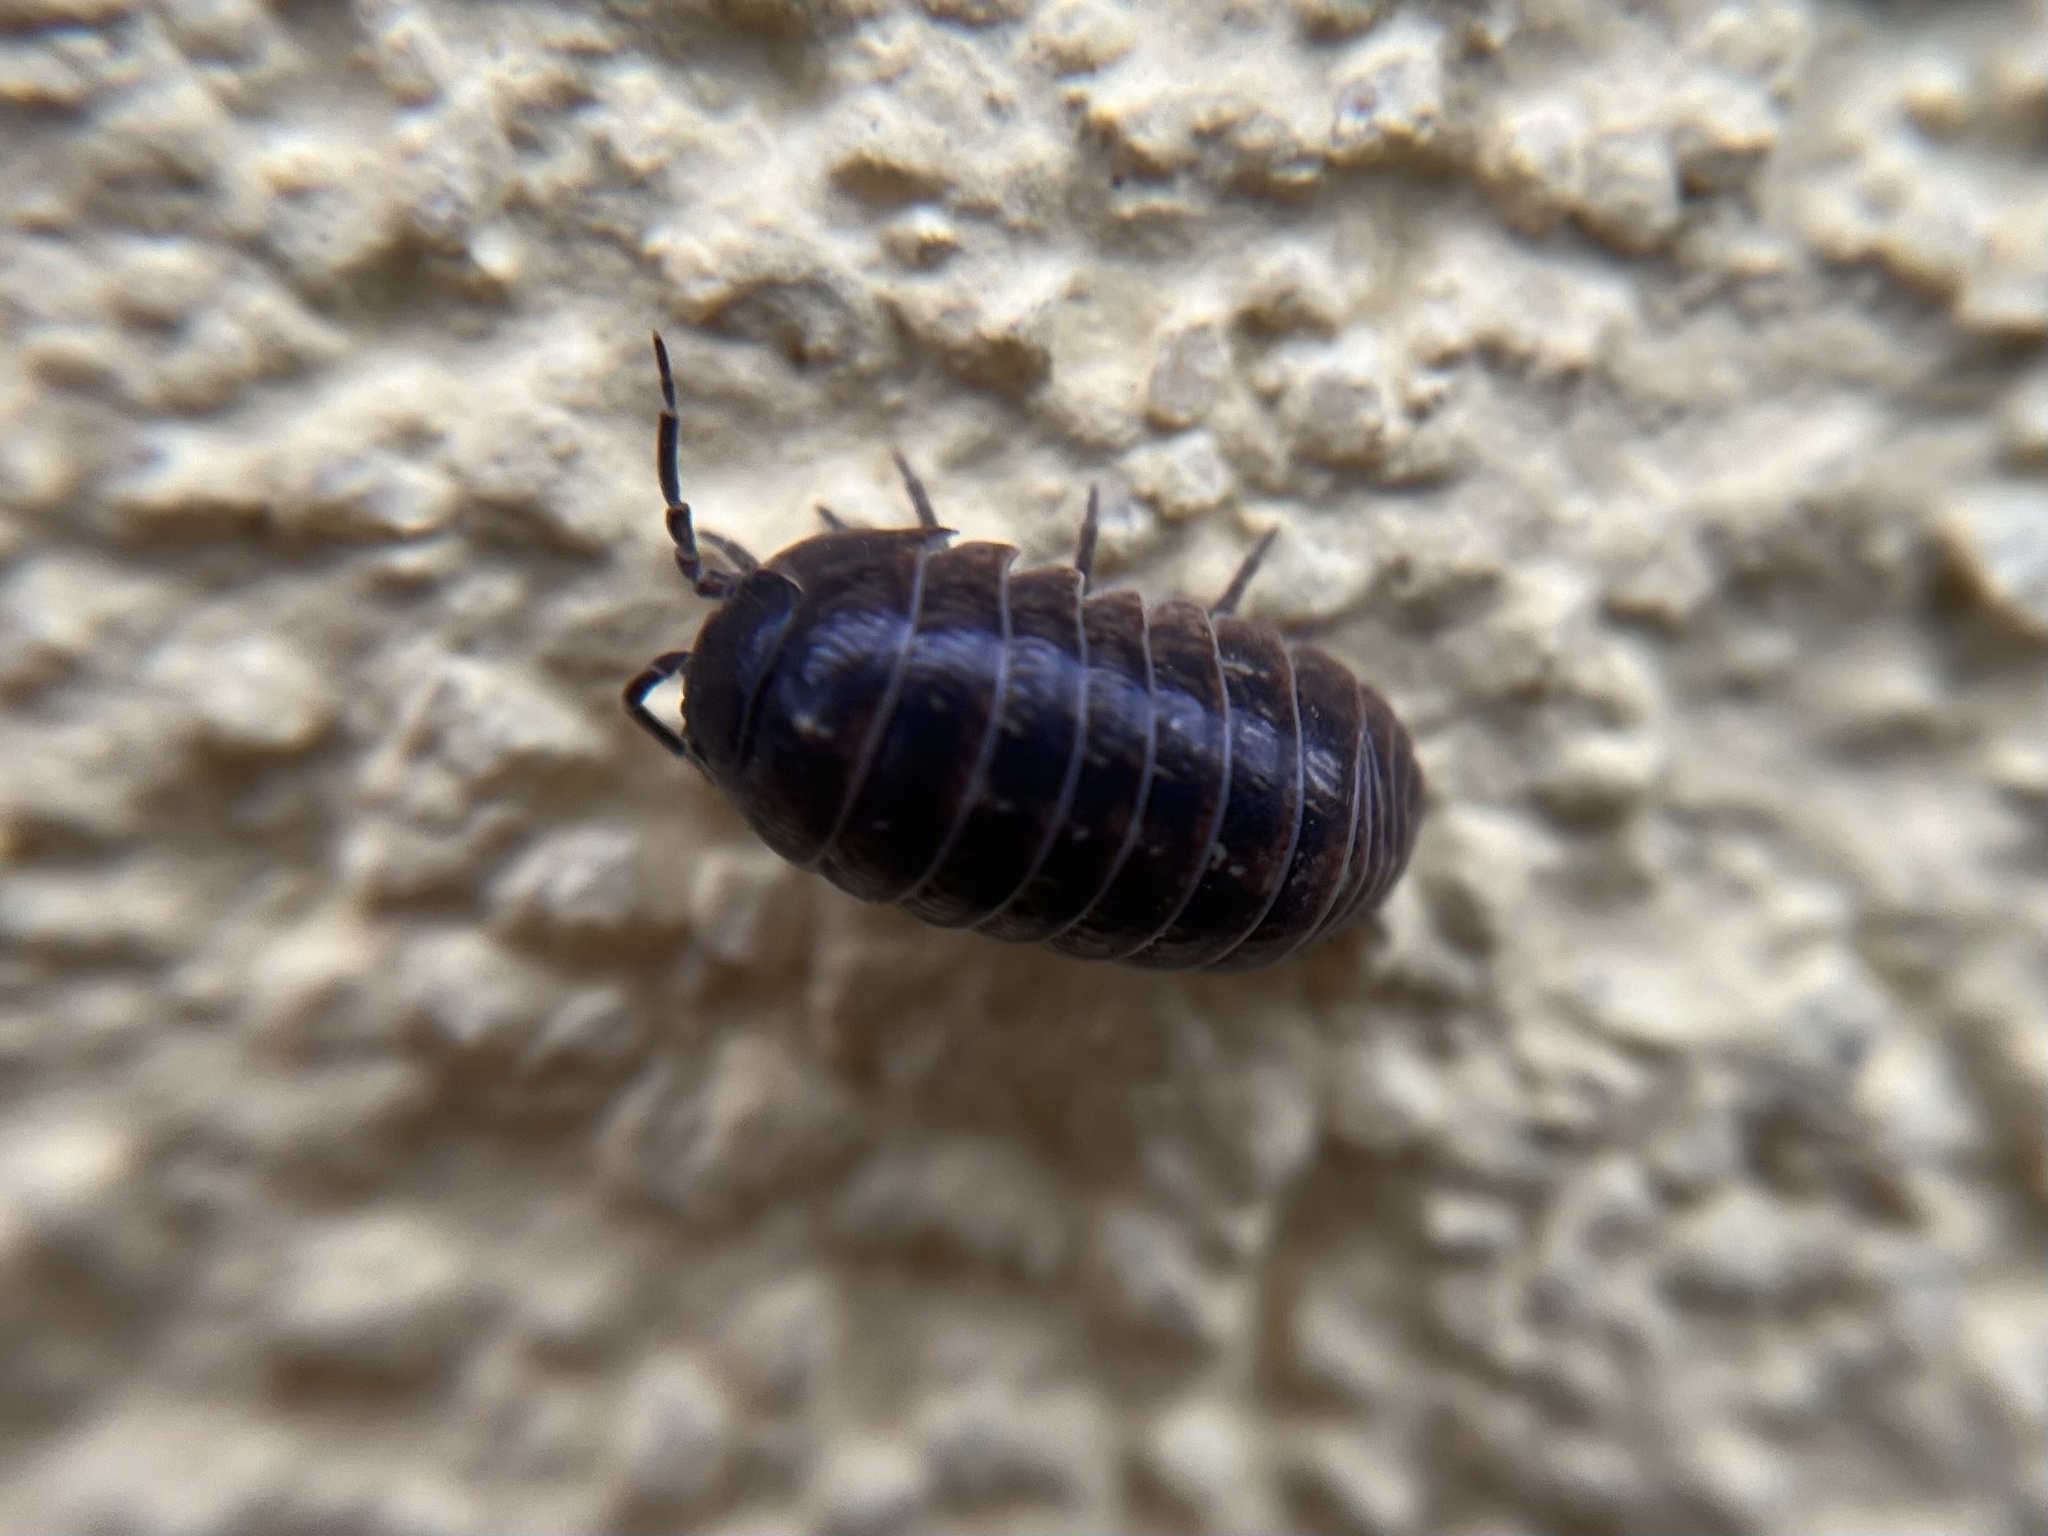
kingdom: Animalia
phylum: Arthropoda
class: Malacostraca
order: Isopoda
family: Armadillidiidae
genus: Armadillidium
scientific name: Armadillidium vulgare
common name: Common pill woodlouse
